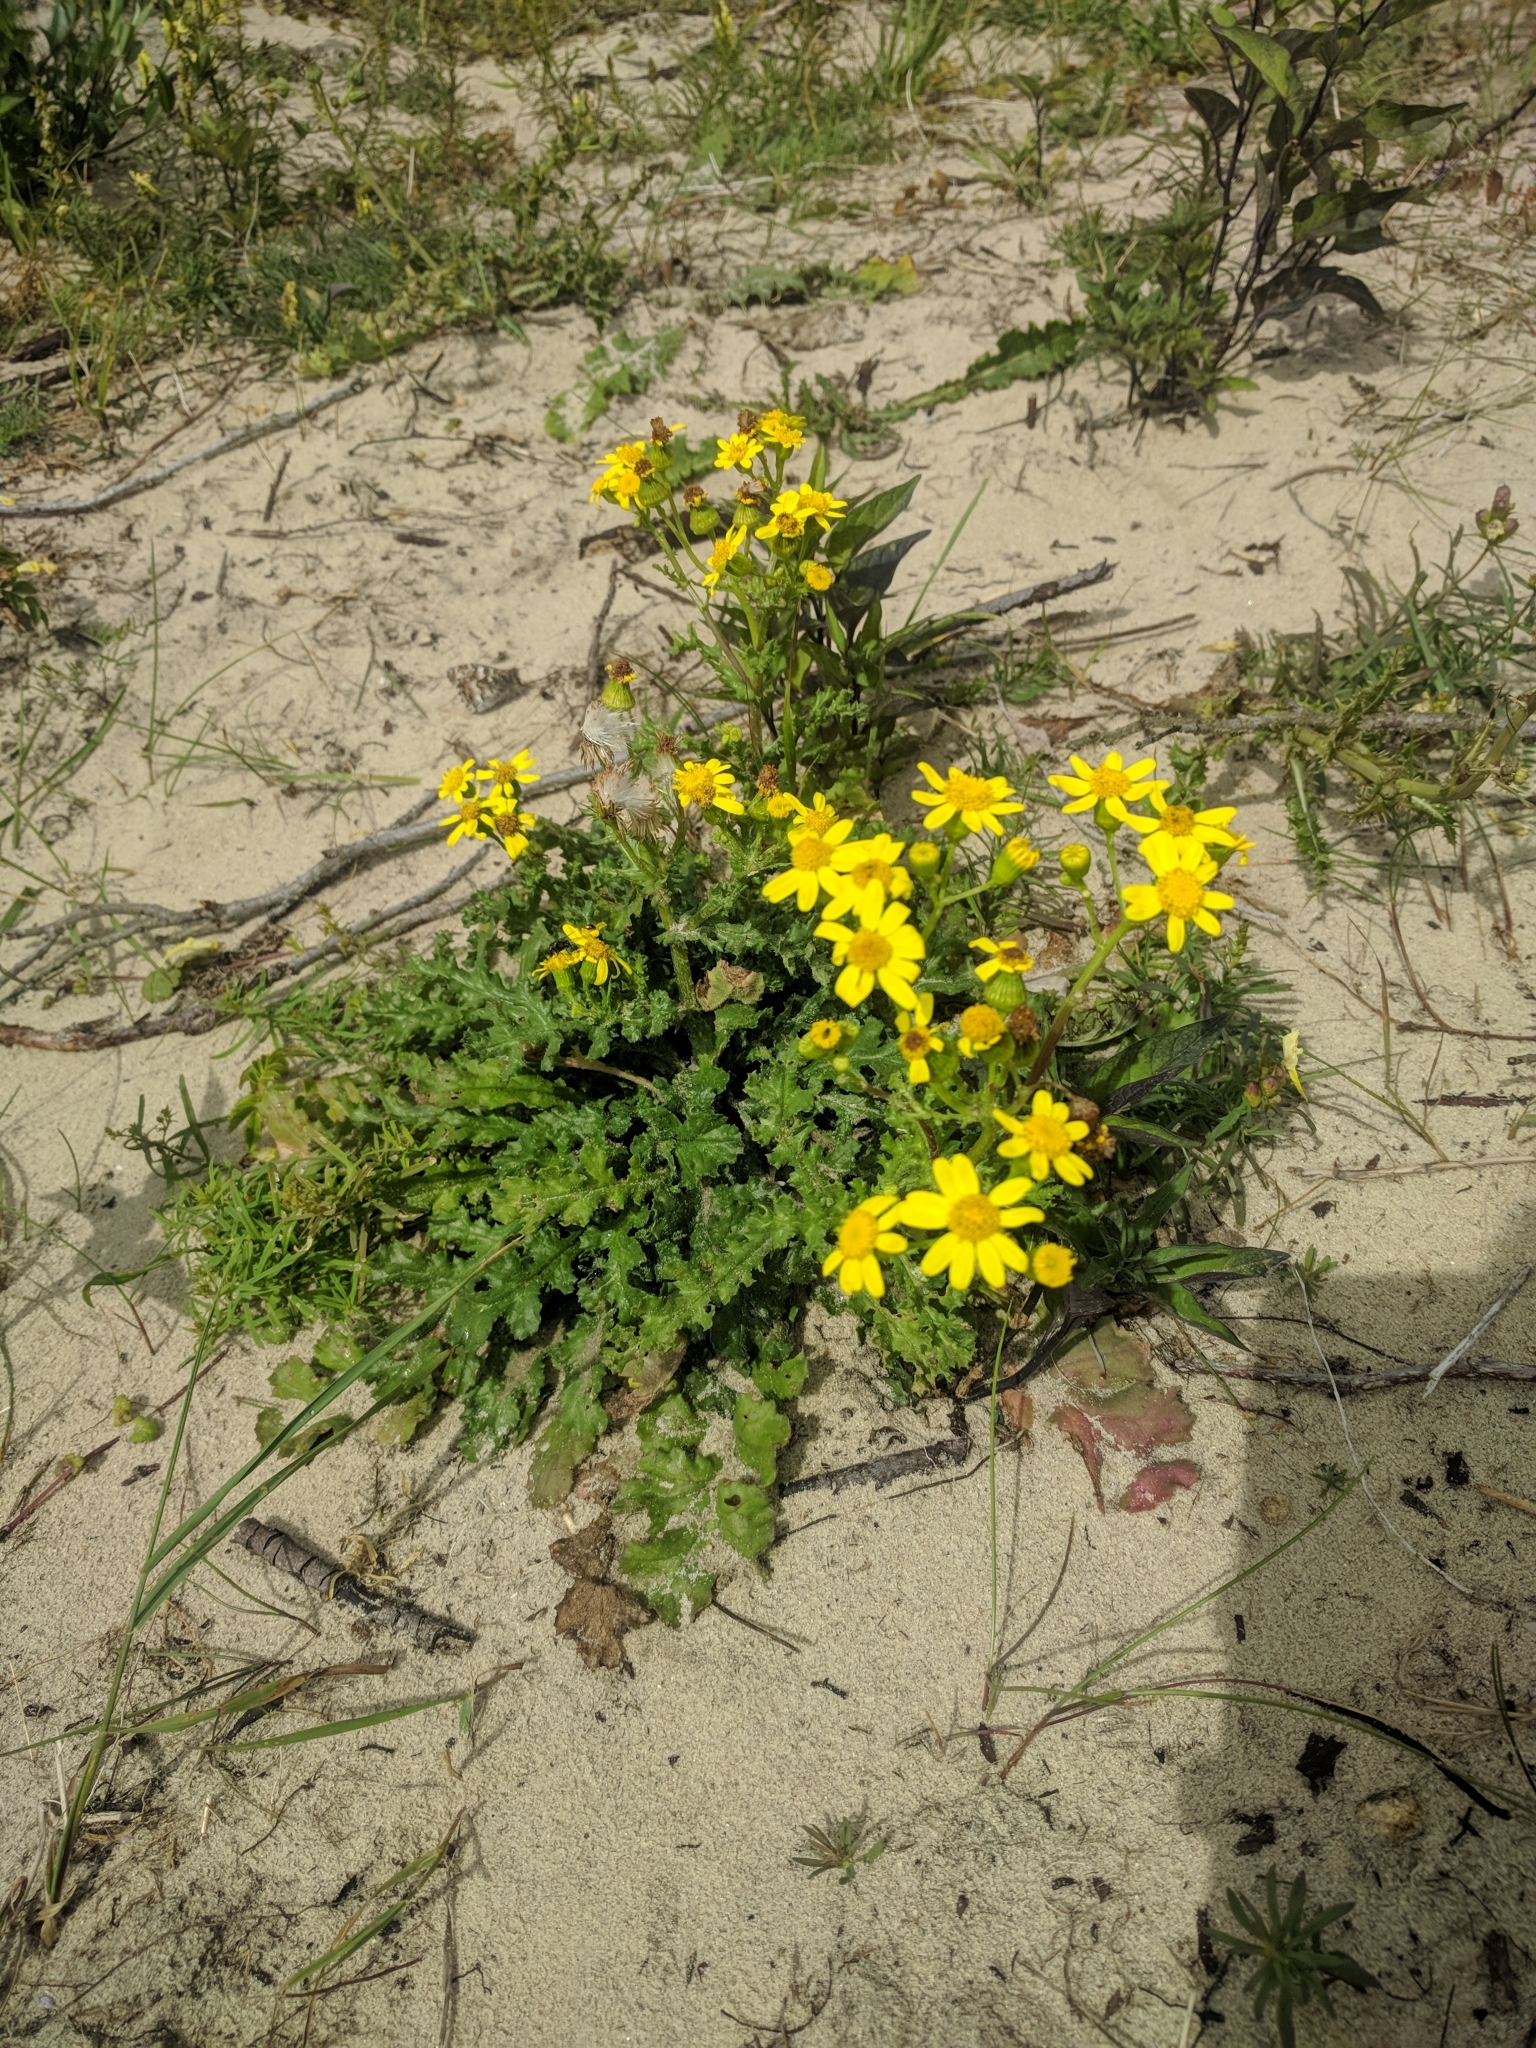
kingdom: Plantae
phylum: Tracheophyta
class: Magnoliopsida
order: Asterales
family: Asteraceae
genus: Senecio
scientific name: Senecio vernalis
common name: Eastern groundsel
